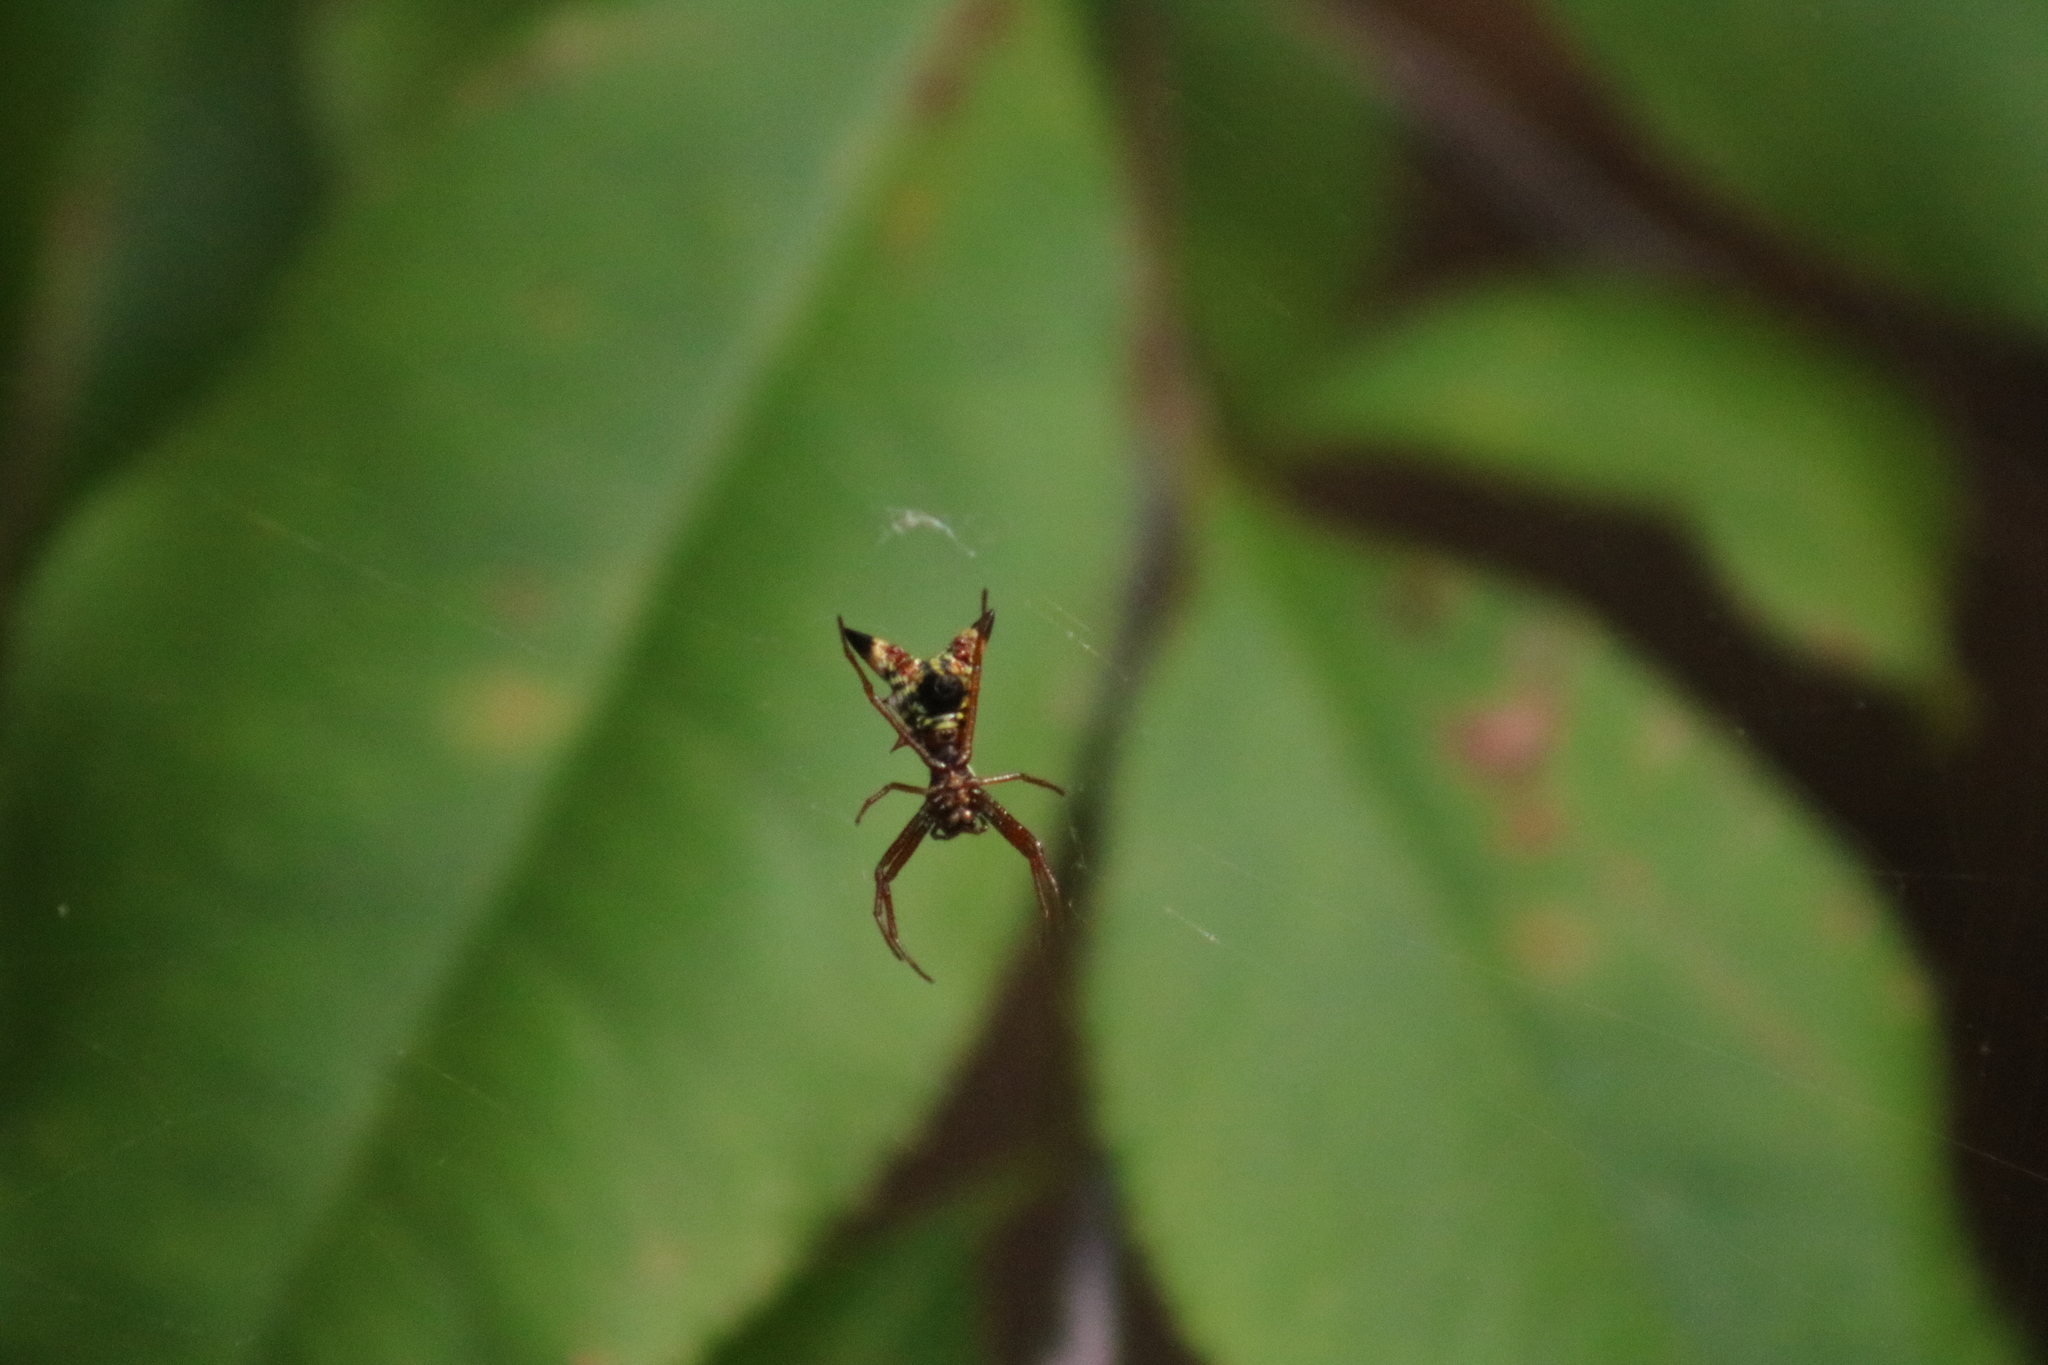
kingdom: Animalia
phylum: Arthropoda
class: Arachnida
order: Araneae
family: Araneidae
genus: Micrathena
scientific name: Micrathena sagittata
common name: Orb weavers
